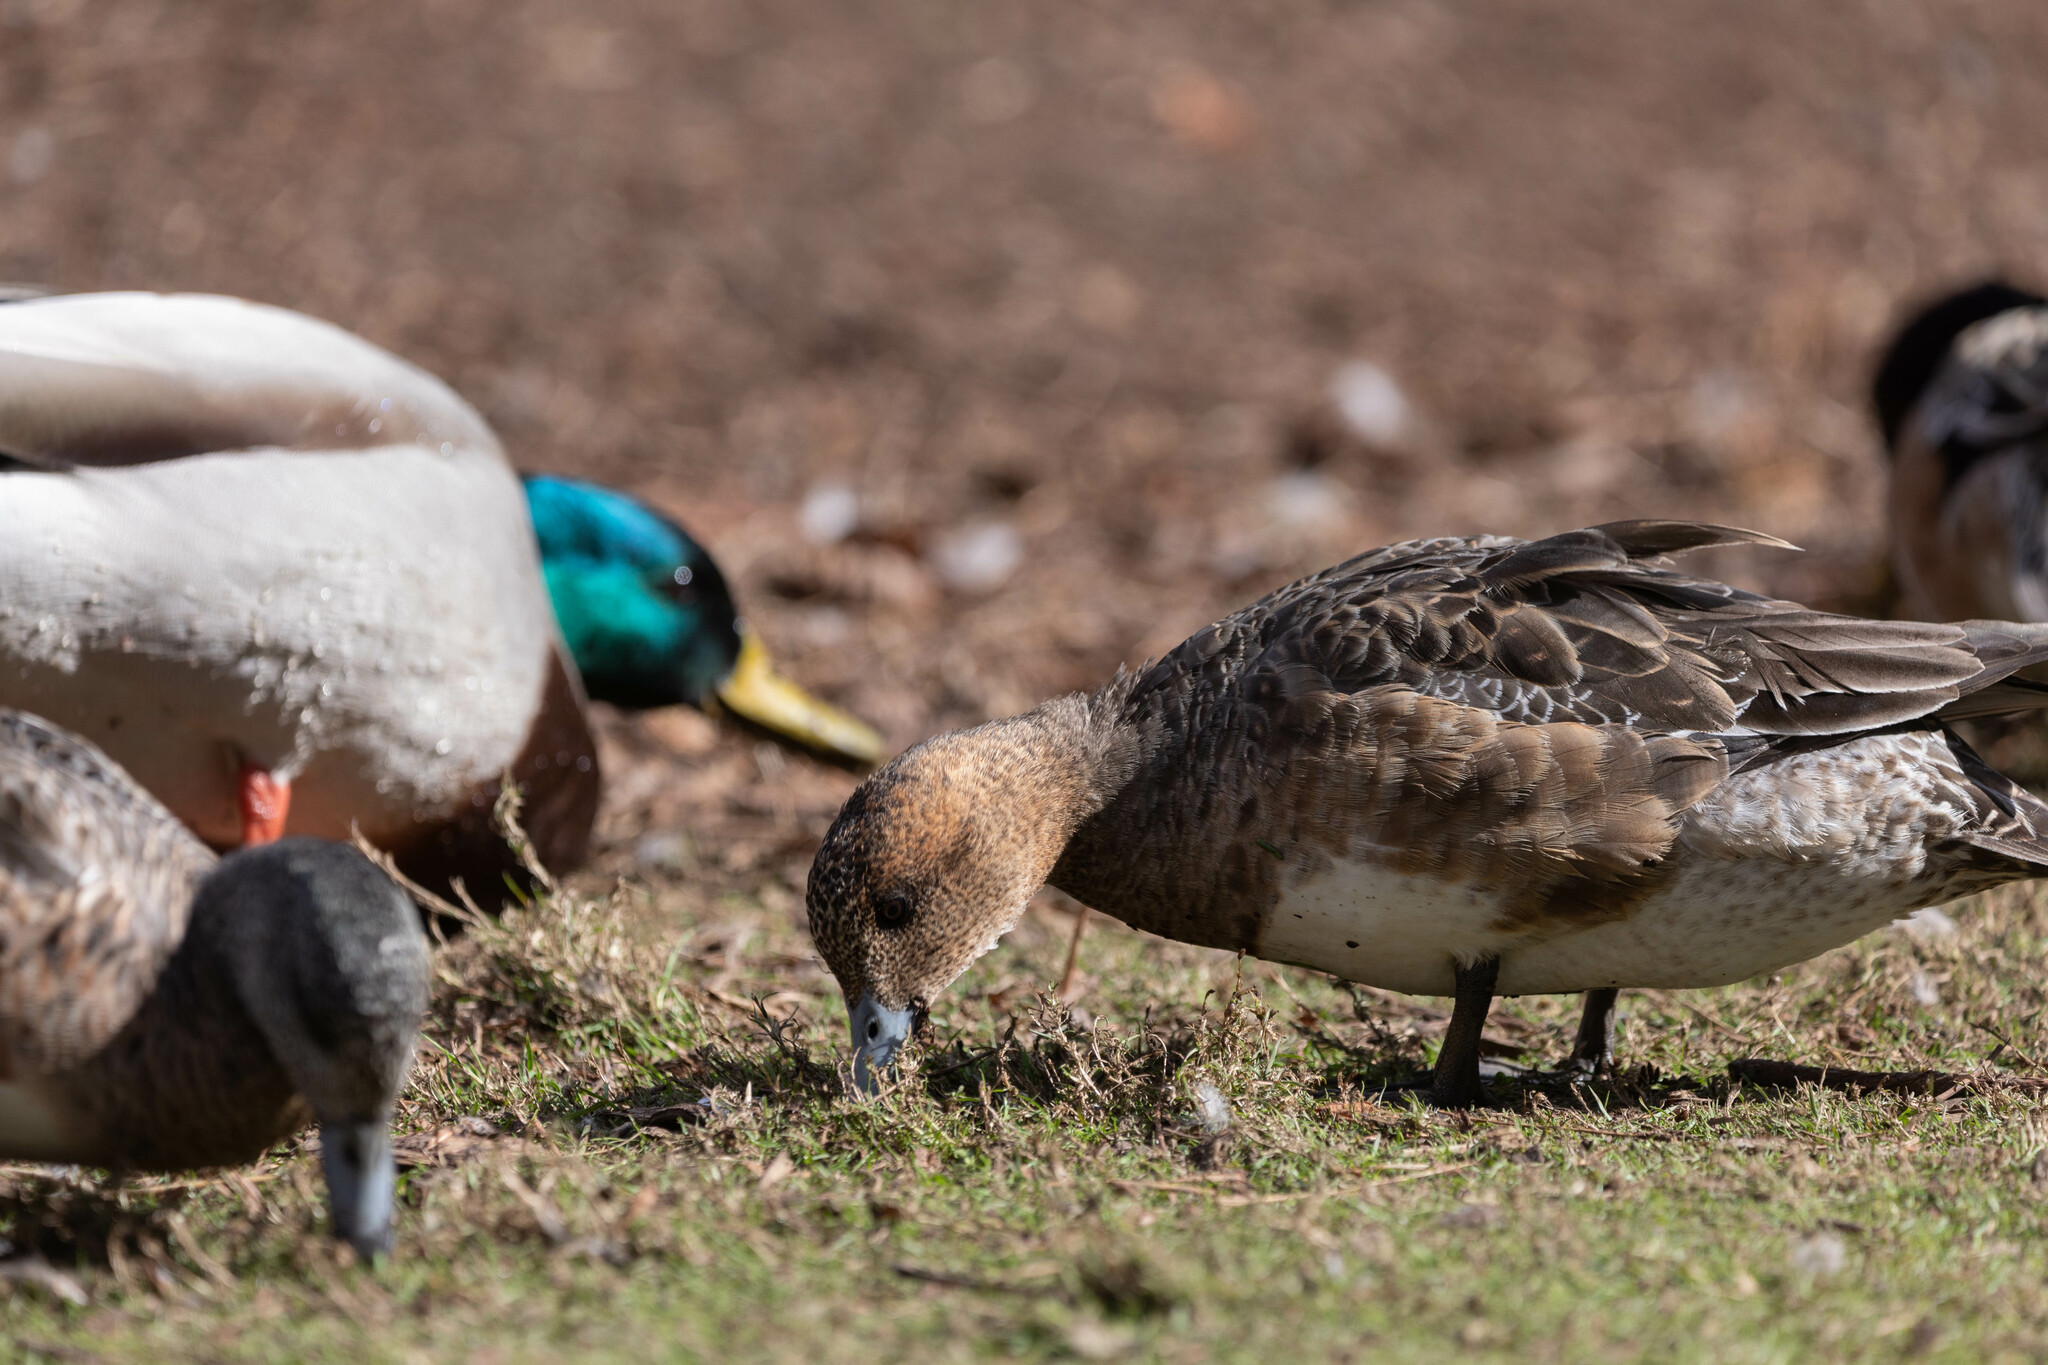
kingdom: Animalia
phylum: Chordata
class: Aves
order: Anseriformes
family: Anatidae
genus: Mareca
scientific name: Mareca penelope
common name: Eurasian wigeon
